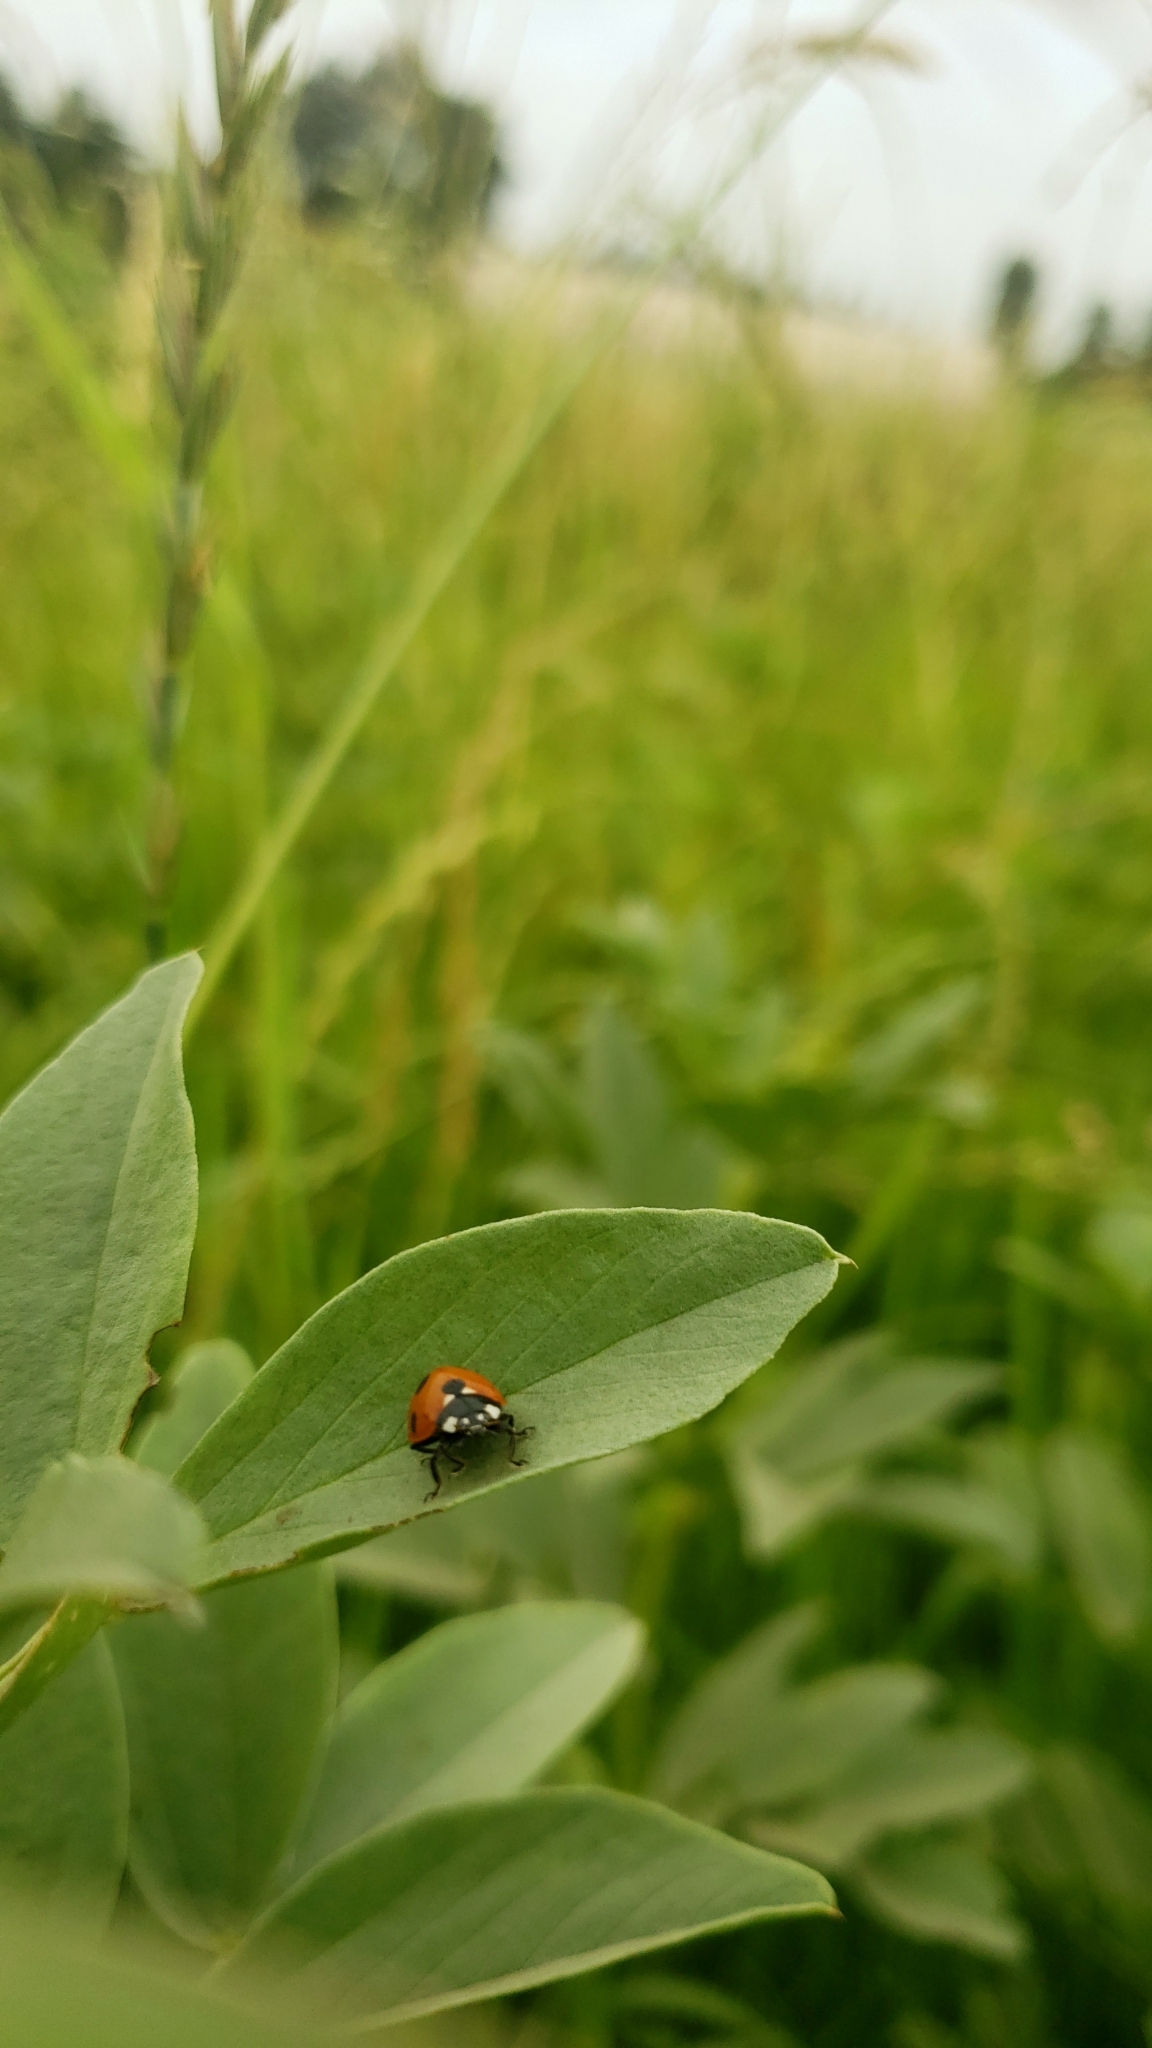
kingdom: Animalia
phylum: Arthropoda
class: Insecta
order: Coleoptera
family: Coccinellidae
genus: Coccinella
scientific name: Coccinella septempunctata
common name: Sevenspotted lady beetle
